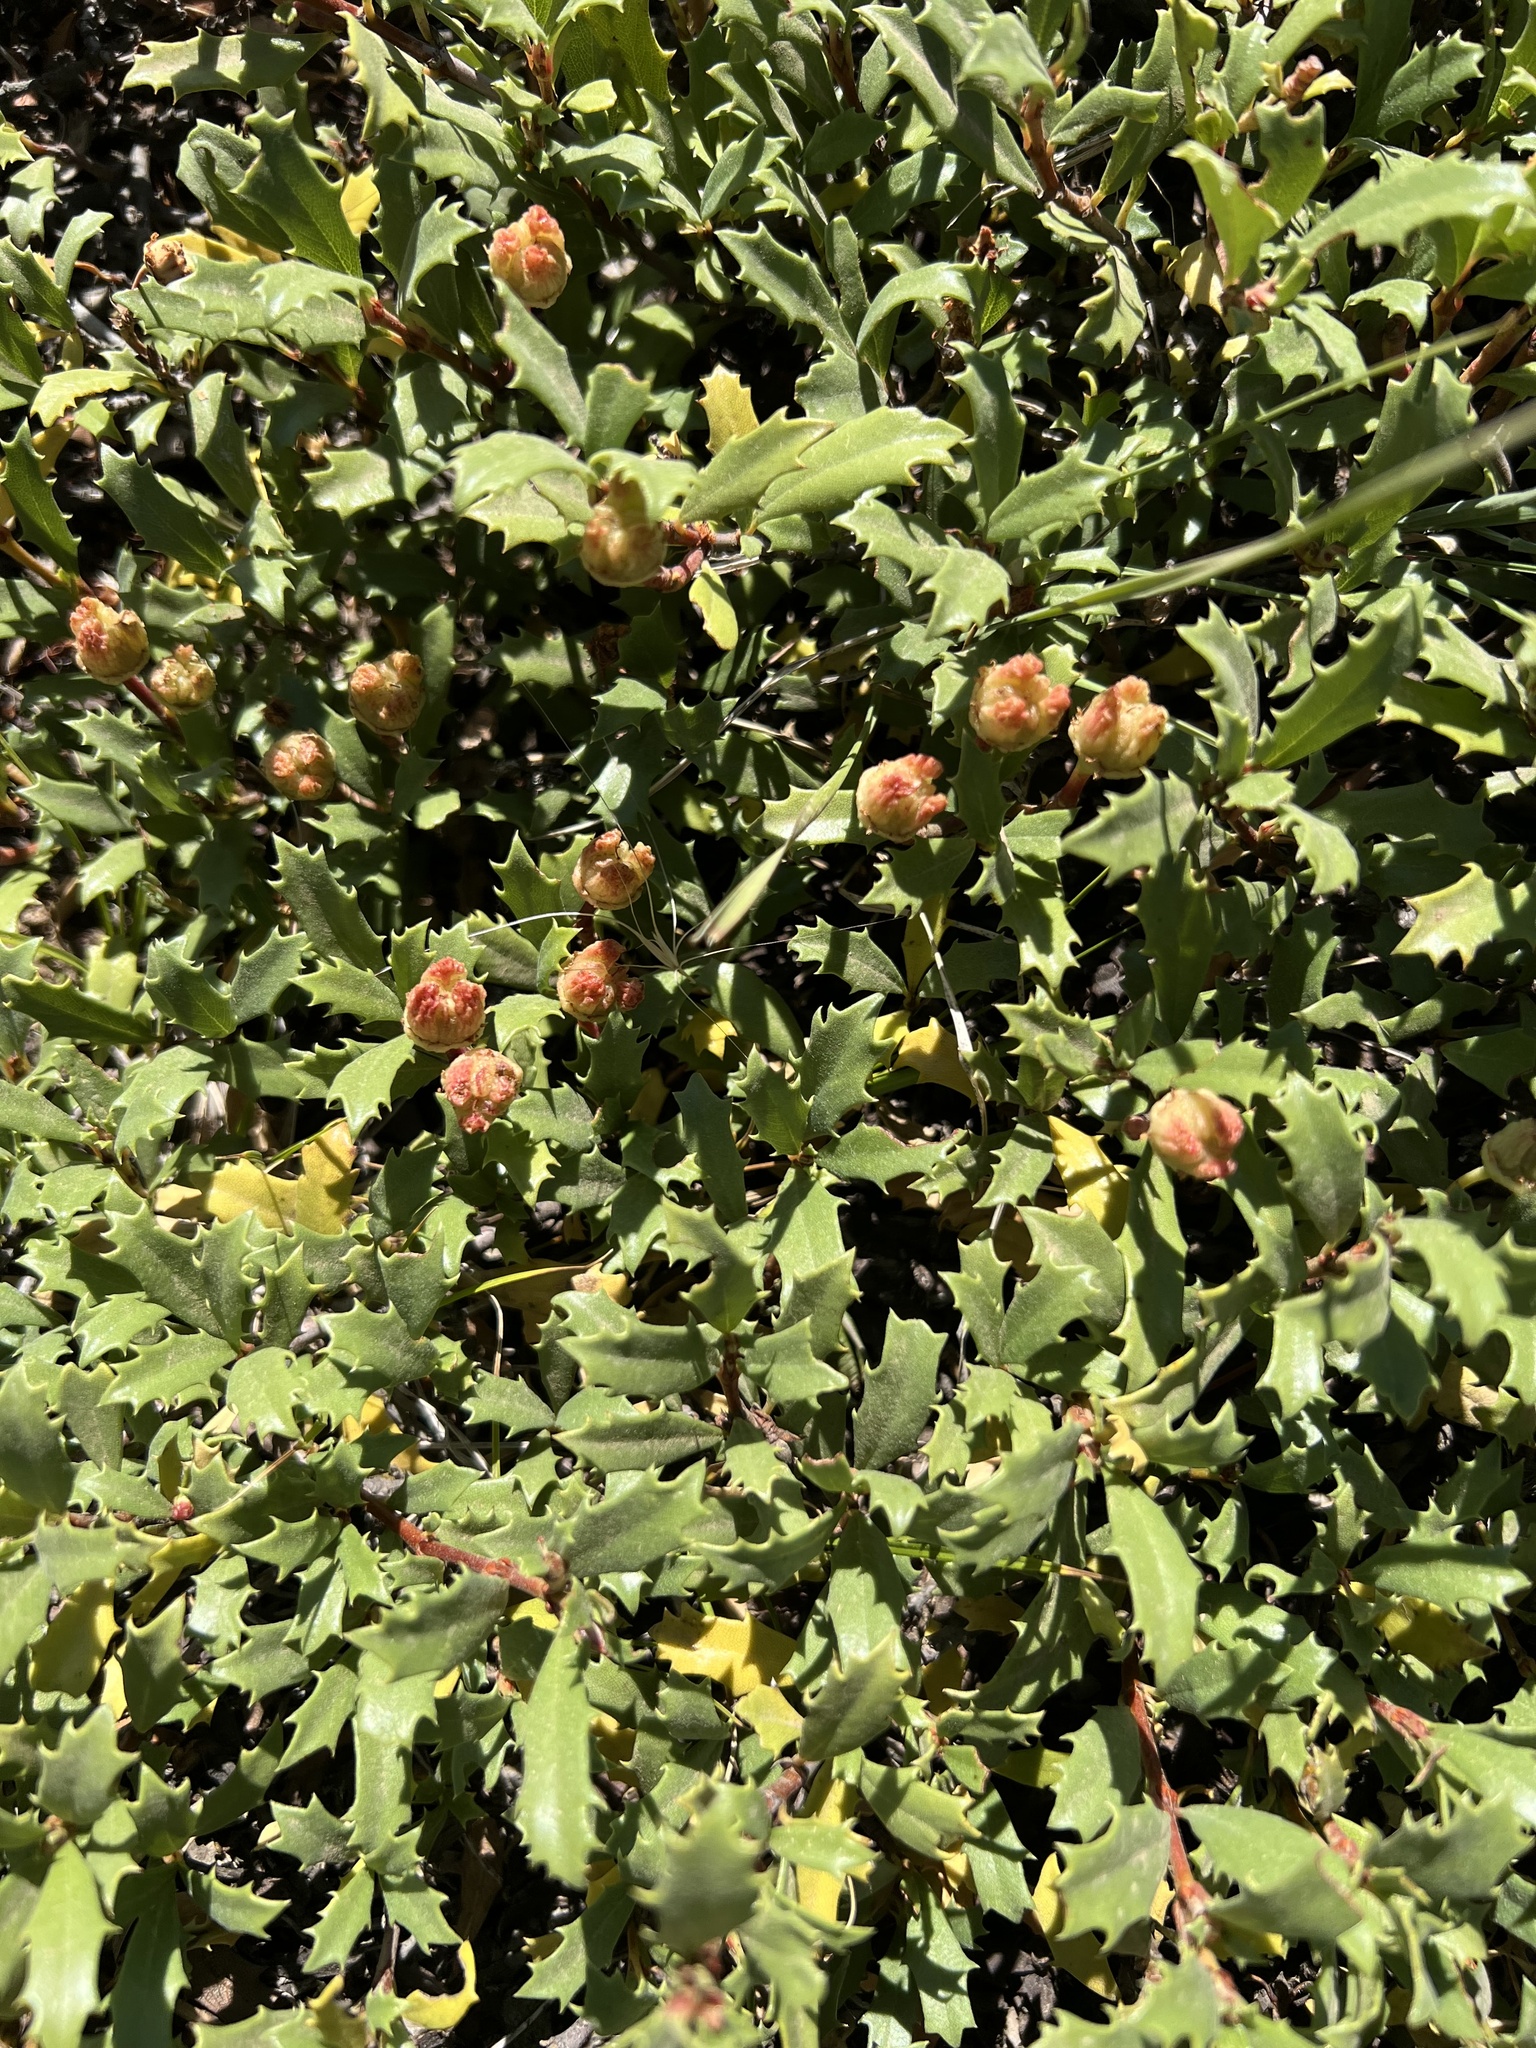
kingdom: Plantae
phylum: Tracheophyta
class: Magnoliopsida
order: Rosales
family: Rhamnaceae
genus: Ceanothus
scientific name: Ceanothus prostratus
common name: Mahala-mat
